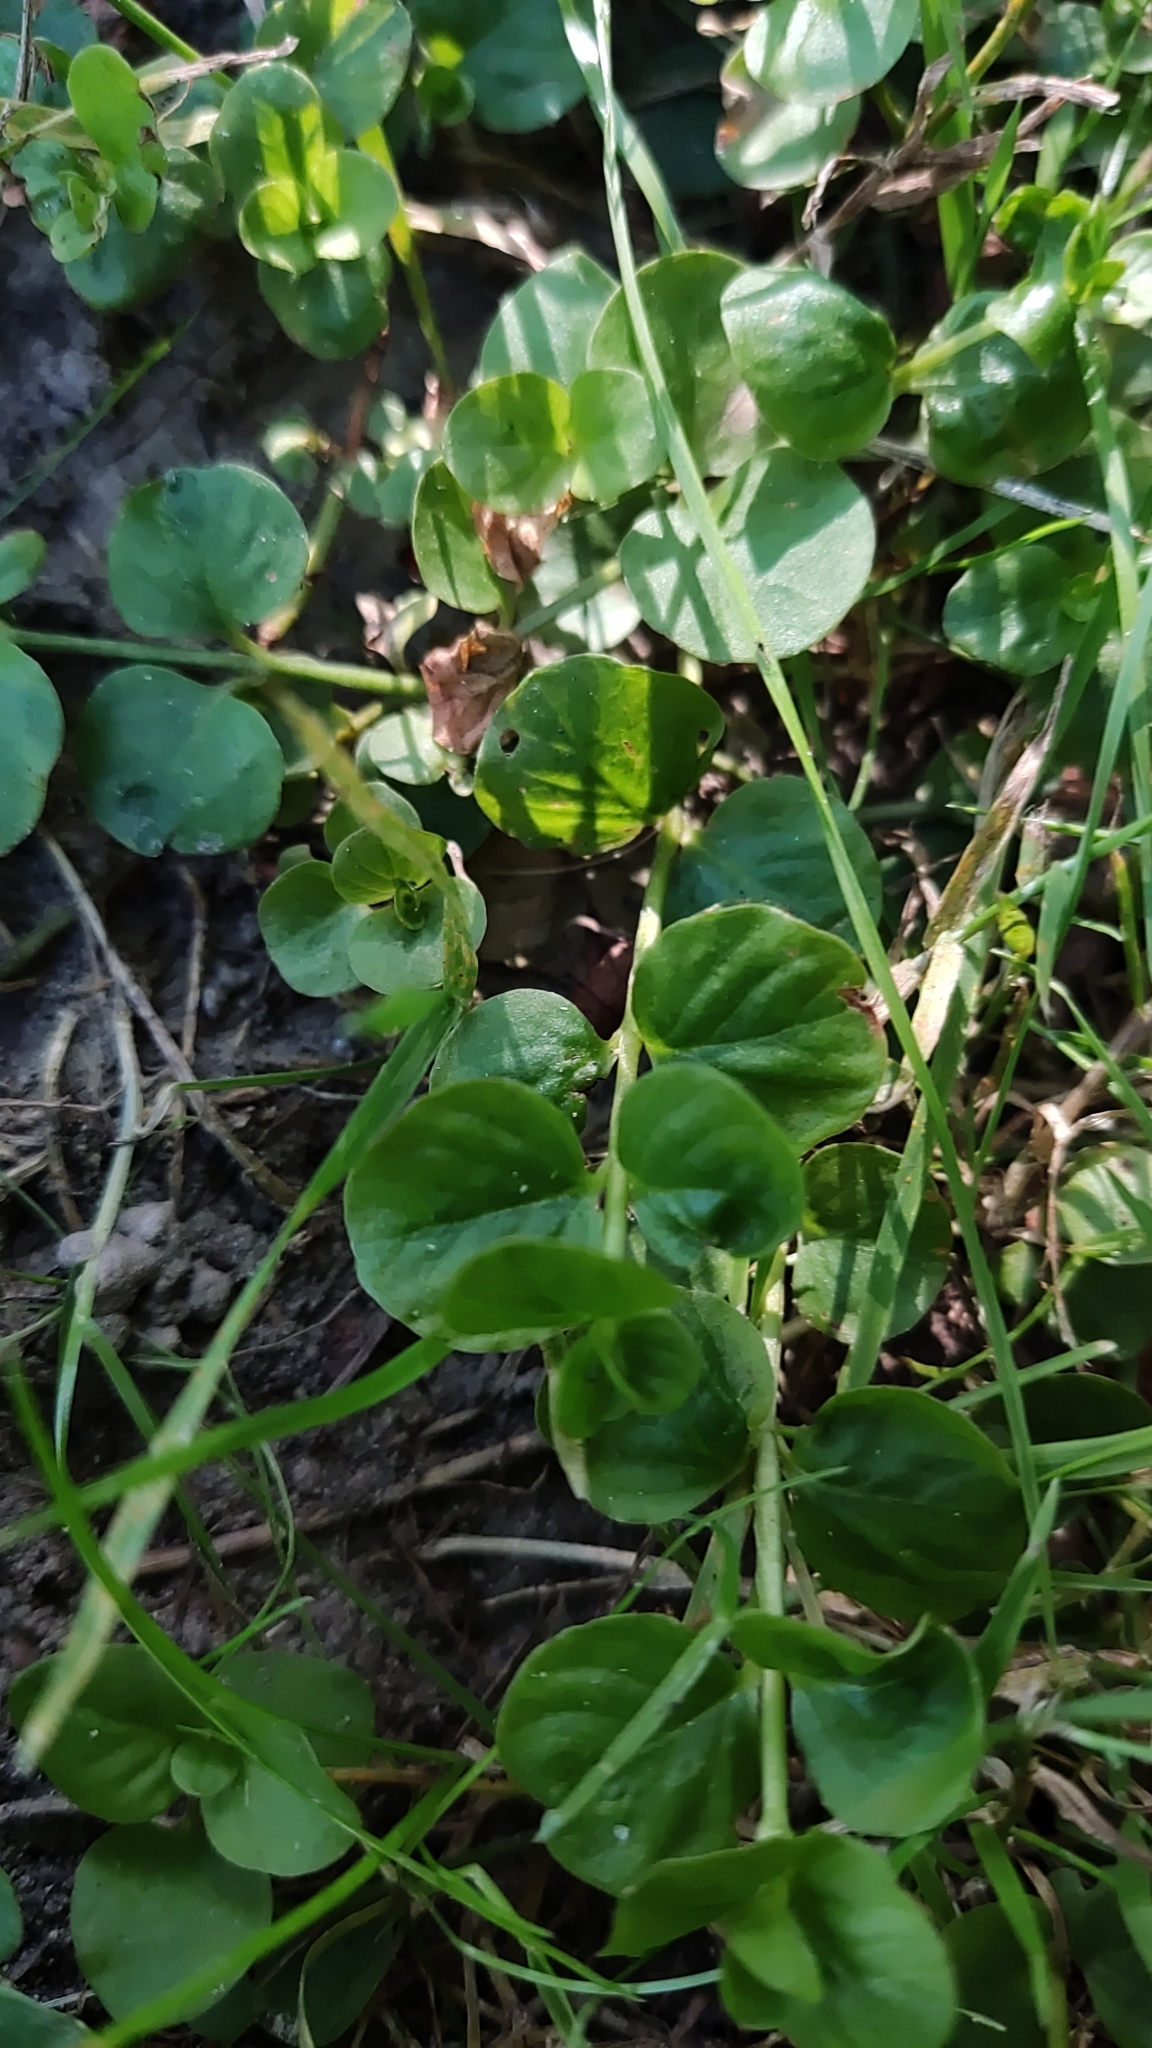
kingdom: Plantae
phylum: Tracheophyta
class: Magnoliopsida
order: Ericales
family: Primulaceae
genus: Lysimachia
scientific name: Lysimachia nummularia
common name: Moneywort
